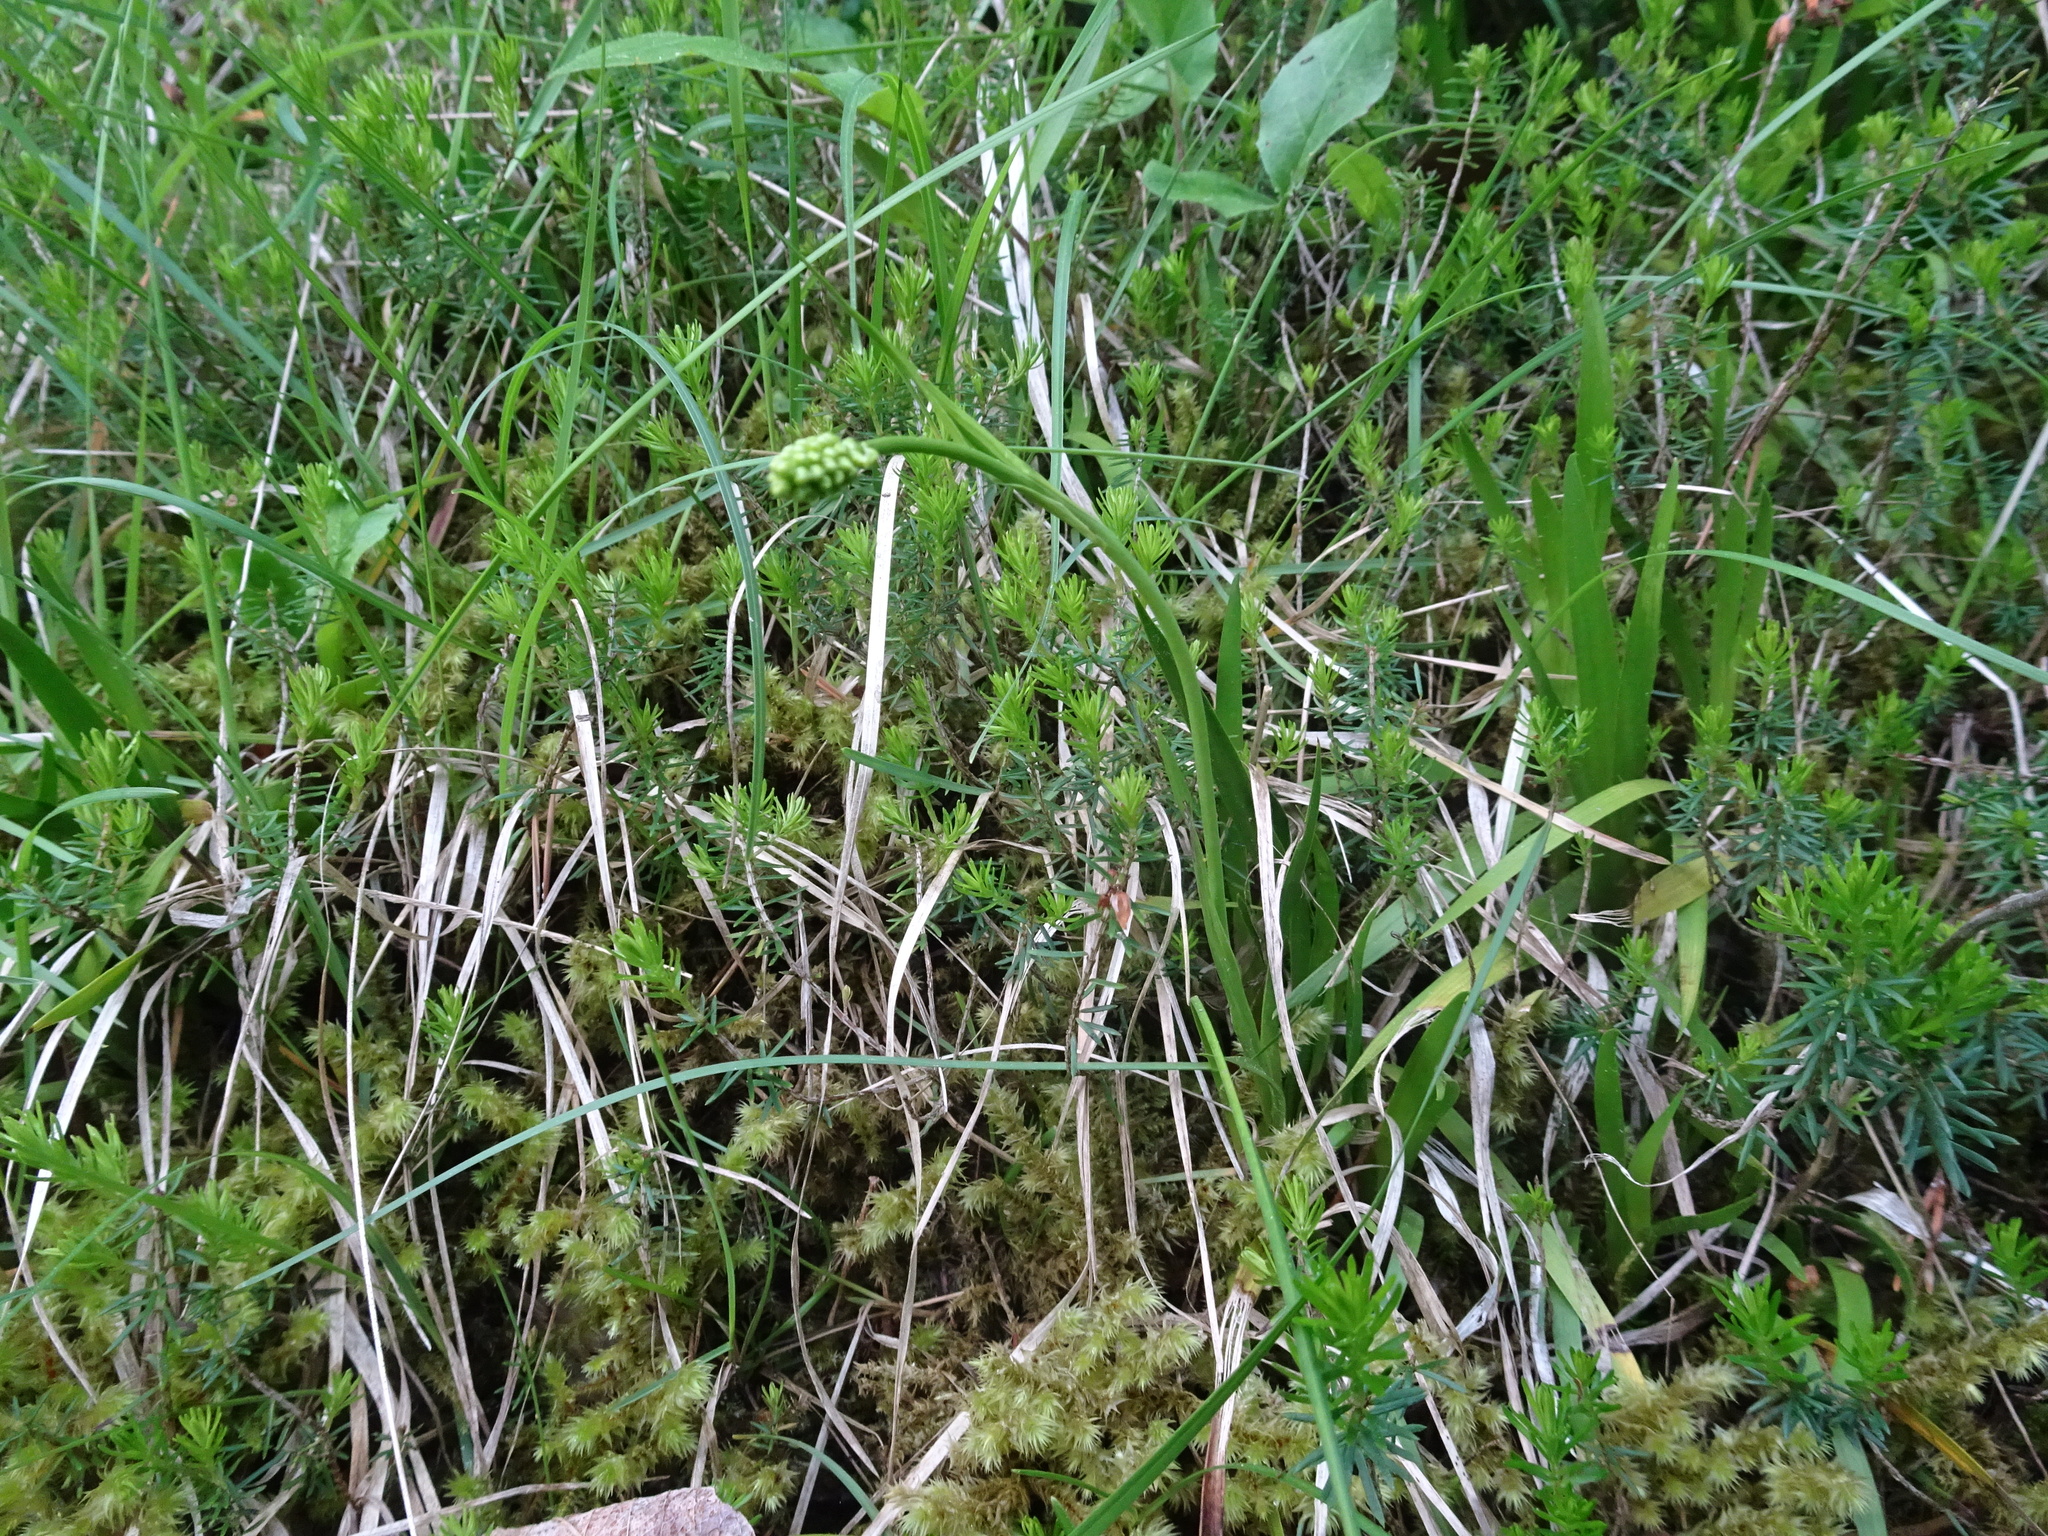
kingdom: Plantae
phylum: Tracheophyta
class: Liliopsida
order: Alismatales
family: Tofieldiaceae
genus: Tofieldia
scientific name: Tofieldia calyculata
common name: German-asphodel
